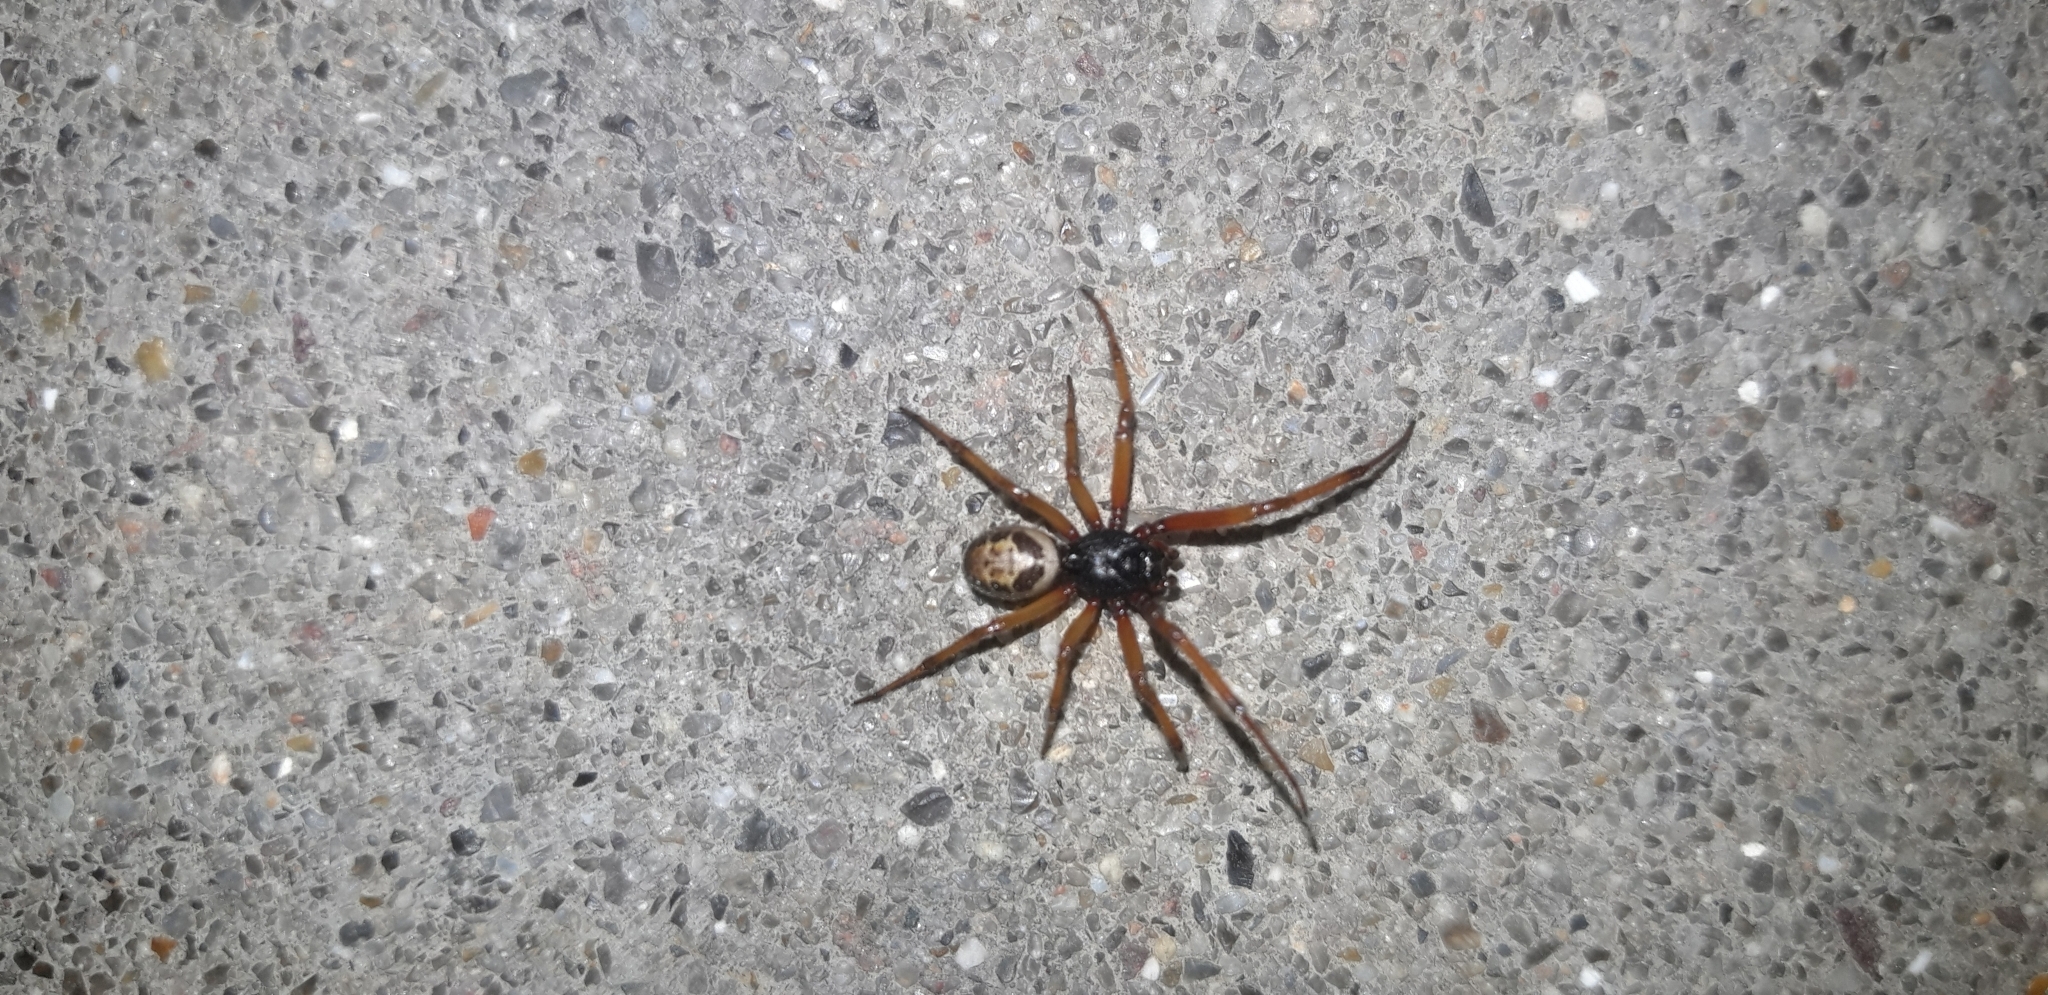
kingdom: Animalia
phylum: Arthropoda
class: Arachnida
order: Araneae
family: Theridiidae
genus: Steatoda
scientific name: Steatoda nobilis
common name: Cobweb weaver
